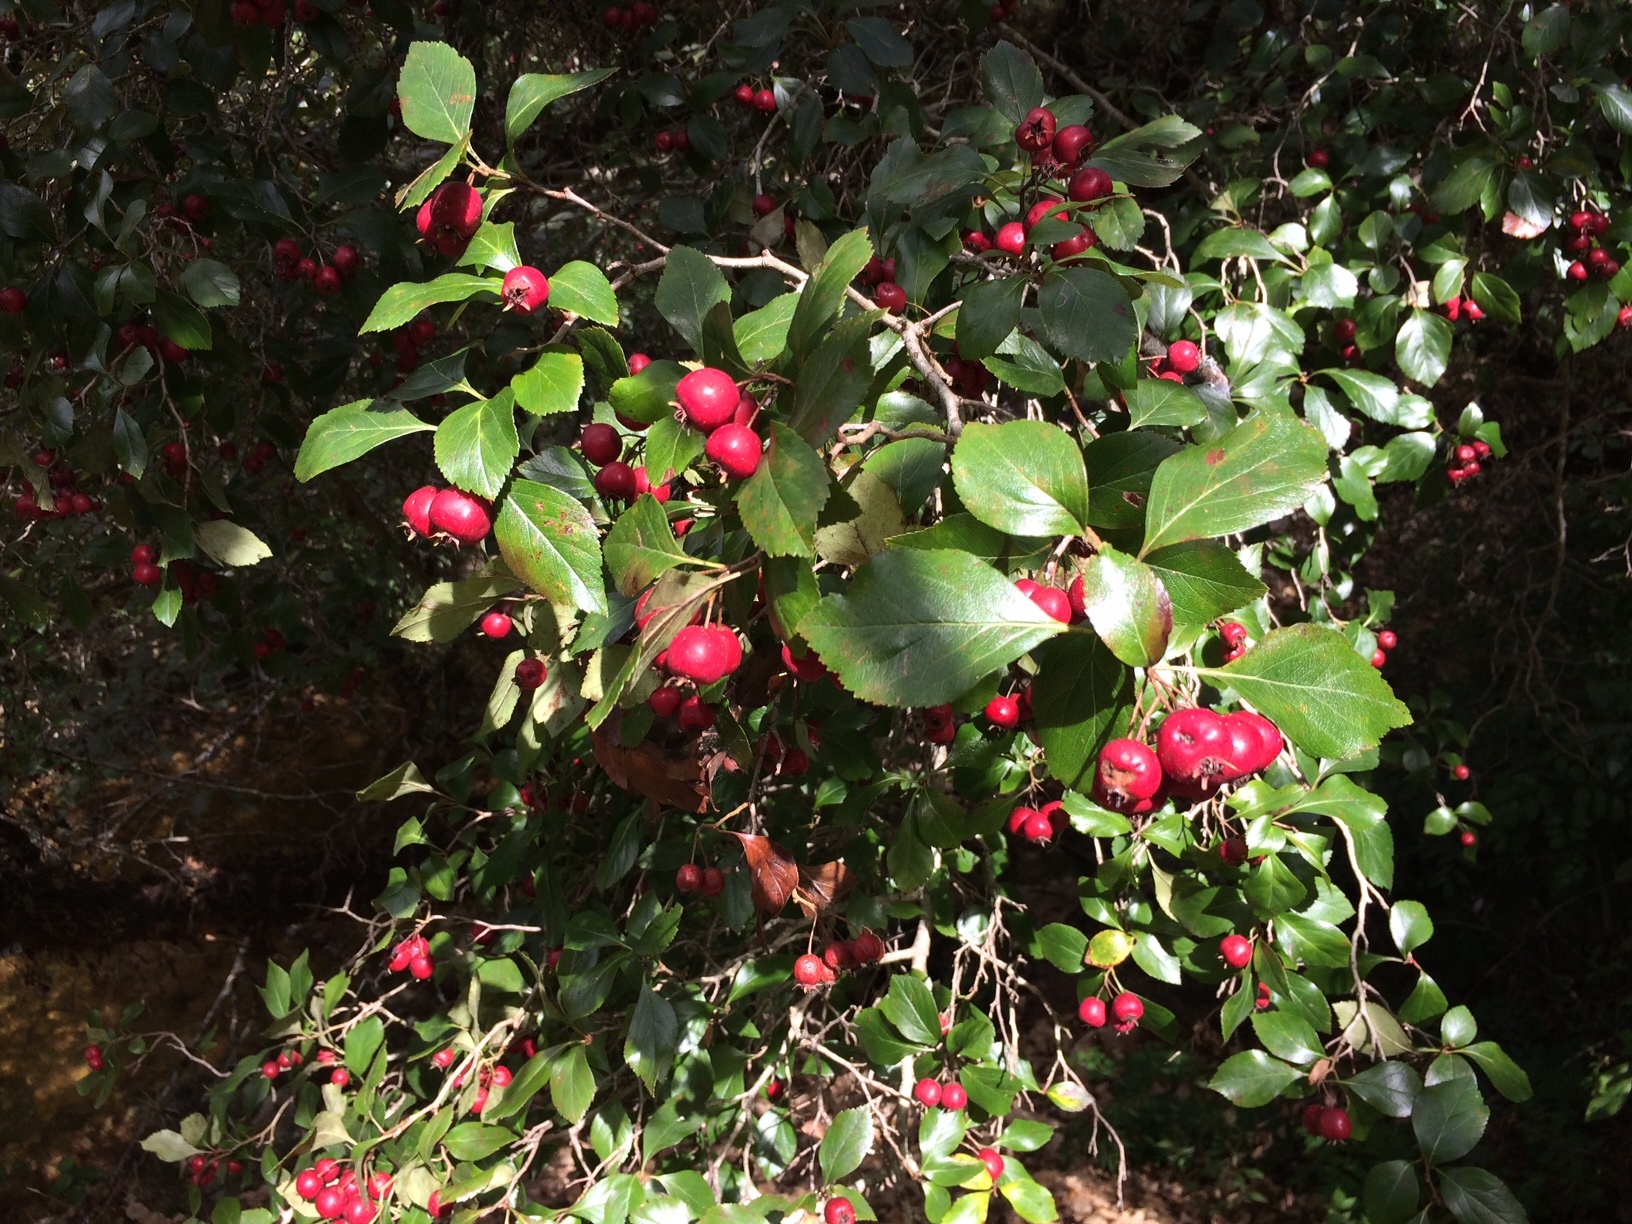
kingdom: Plantae
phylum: Tracheophyta
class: Magnoliopsida
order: Rosales
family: Rosaceae
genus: Crataegus
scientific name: Crataegus lindenii
